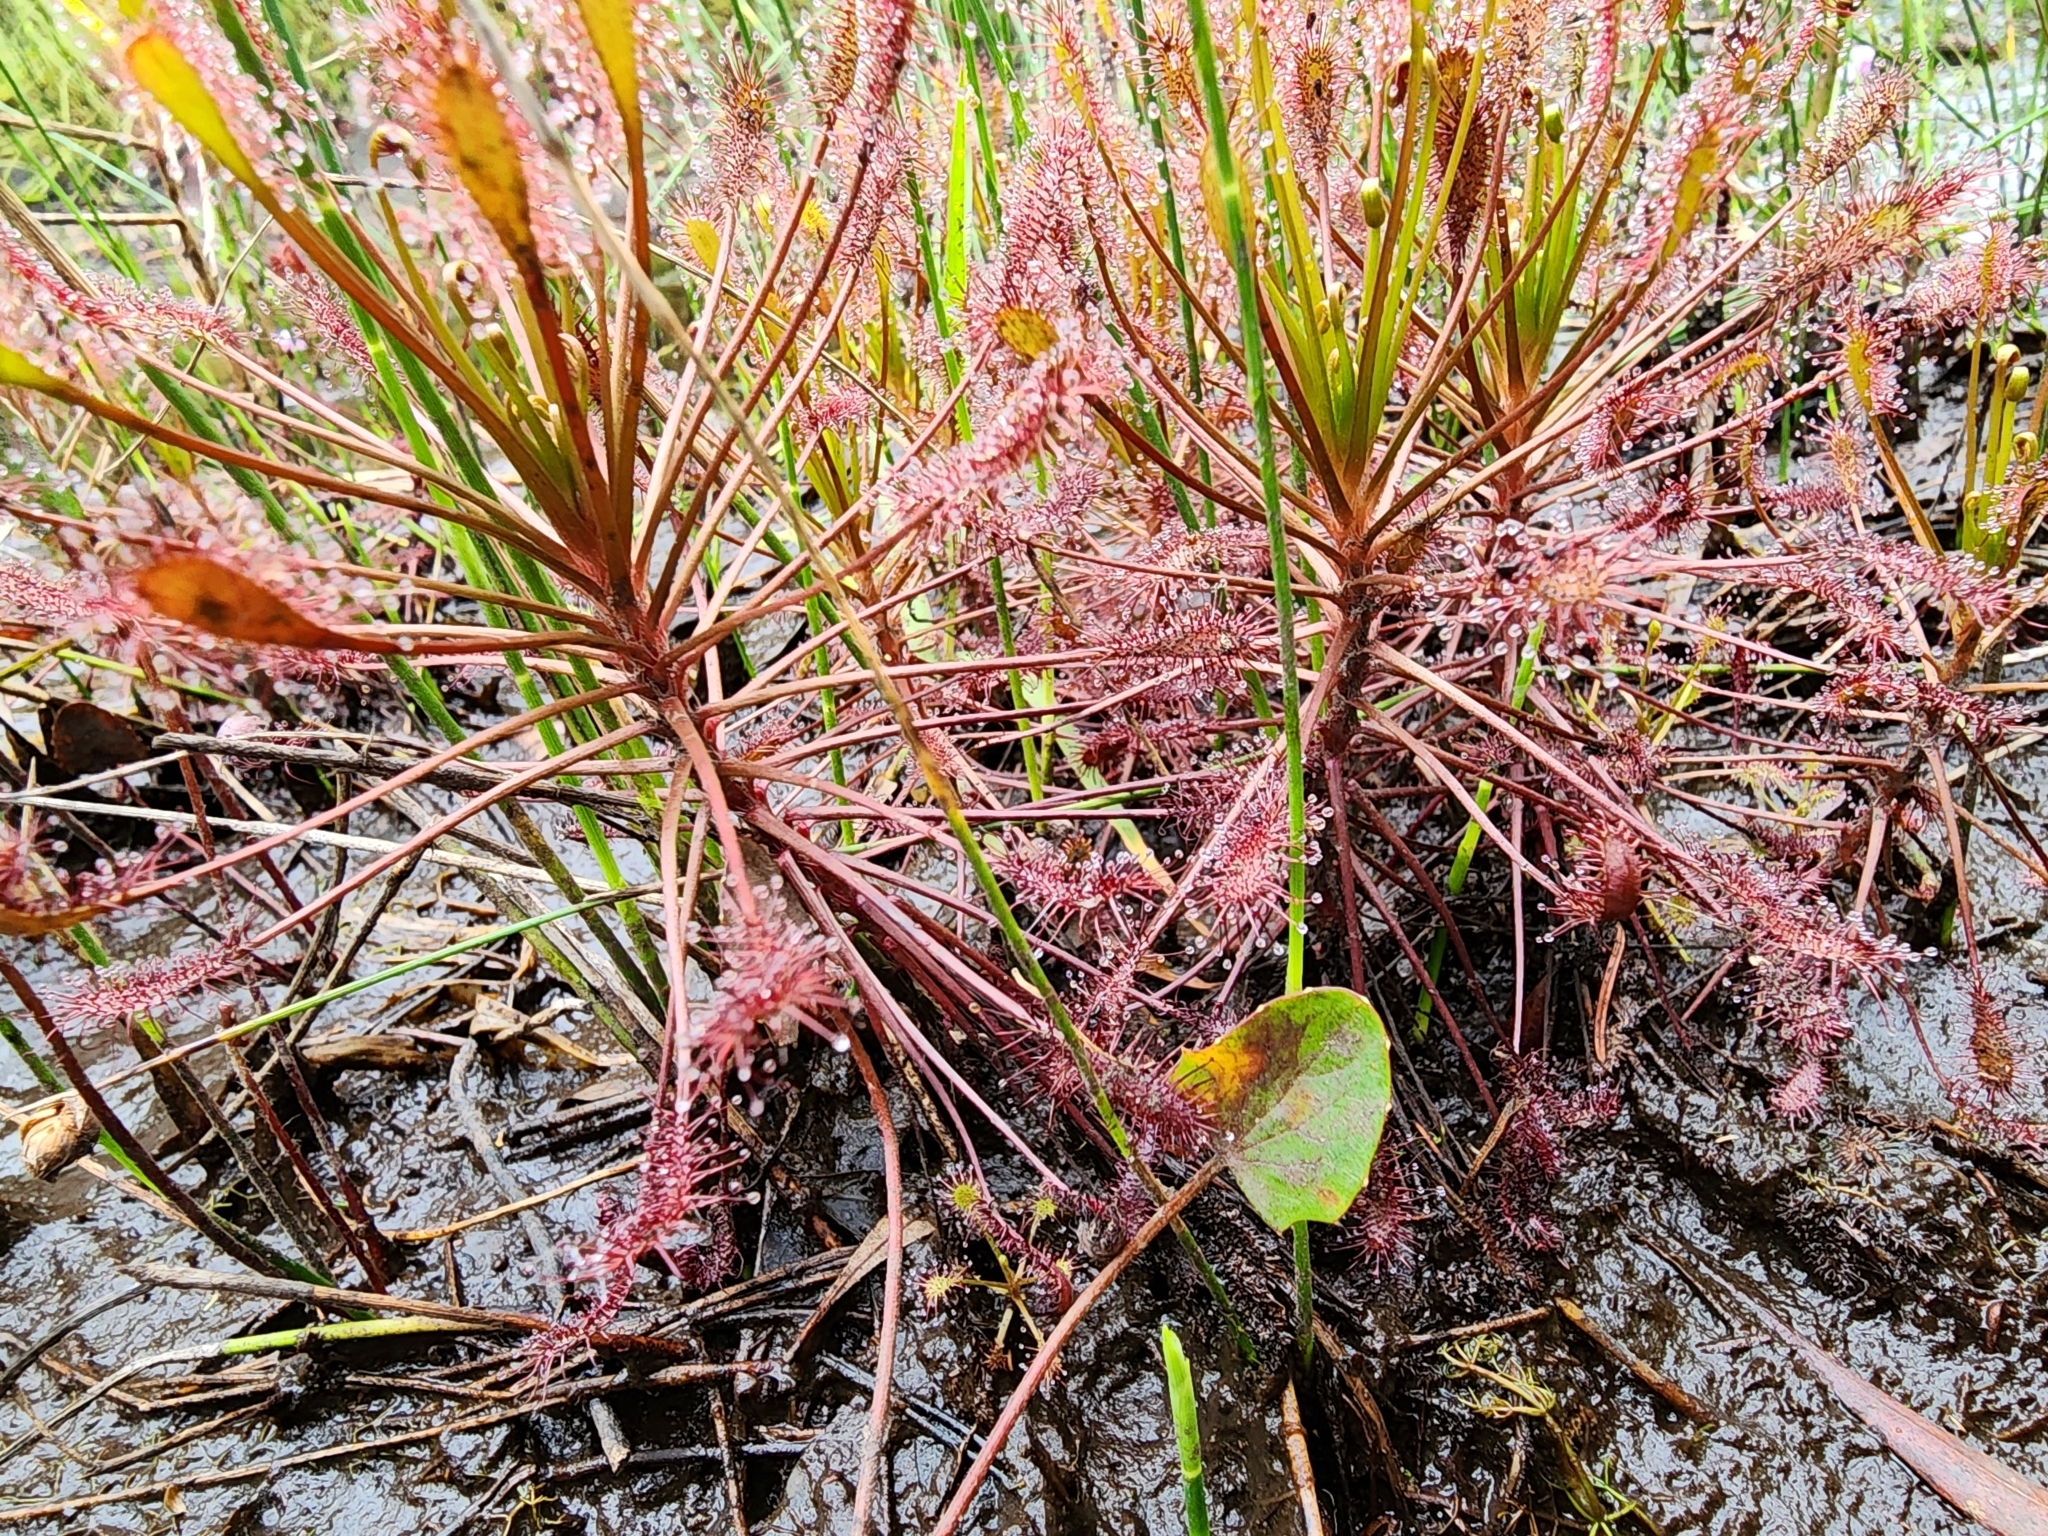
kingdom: Plantae
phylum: Tracheophyta
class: Magnoliopsida
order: Caryophyllales
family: Droseraceae
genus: Drosera
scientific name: Drosera intermedia
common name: Oblong-leaved sundew
